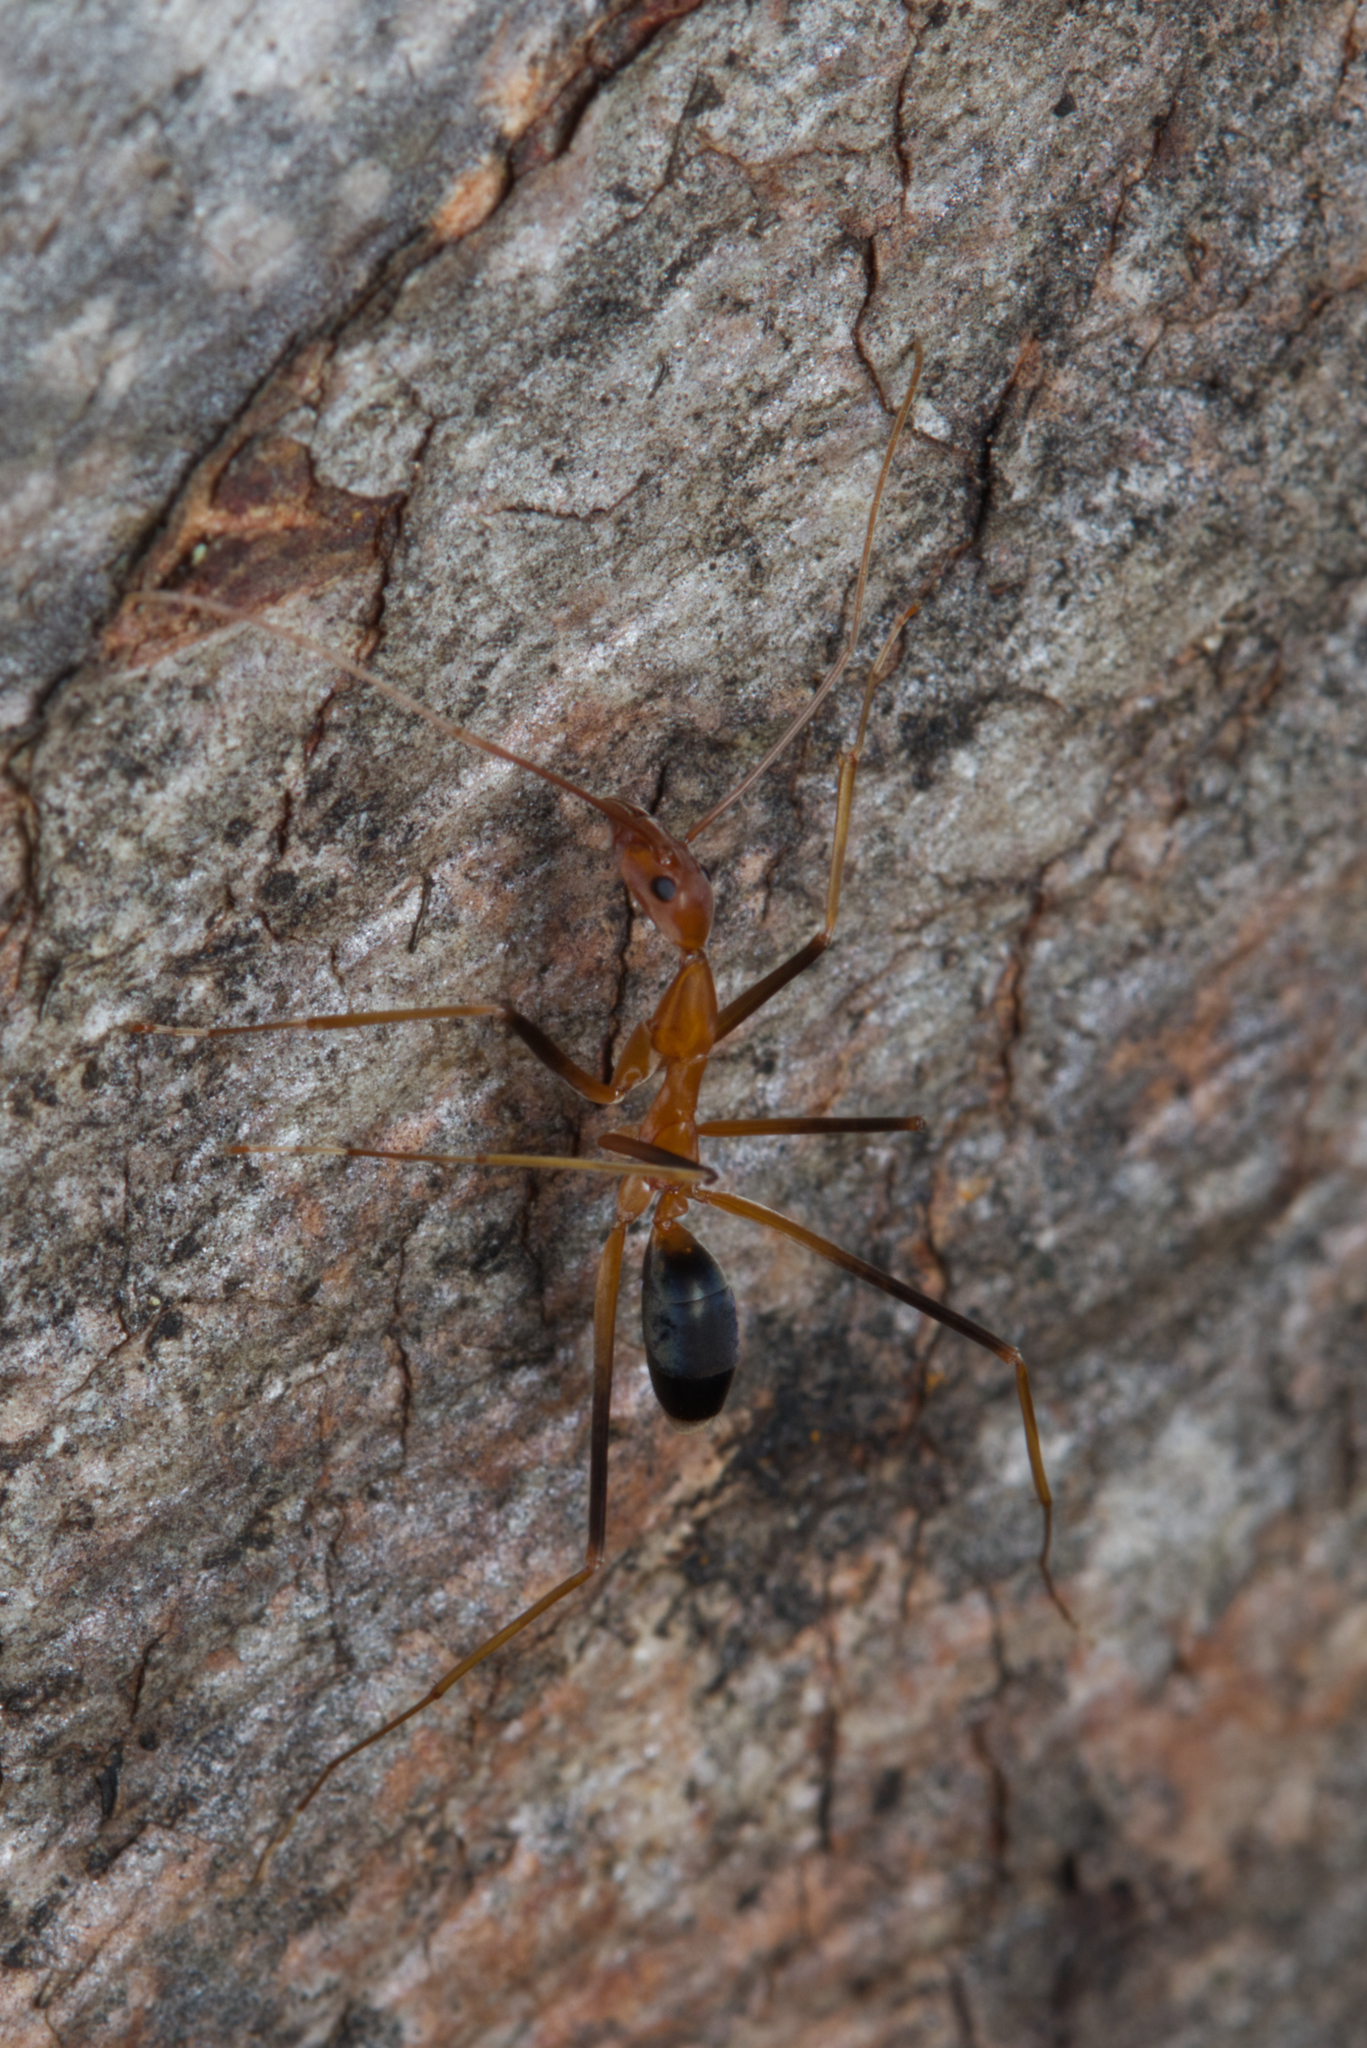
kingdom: Animalia
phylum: Arthropoda
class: Insecta
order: Hymenoptera
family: Formicidae
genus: Leptomyrmex
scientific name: Leptomyrmex rufipes
